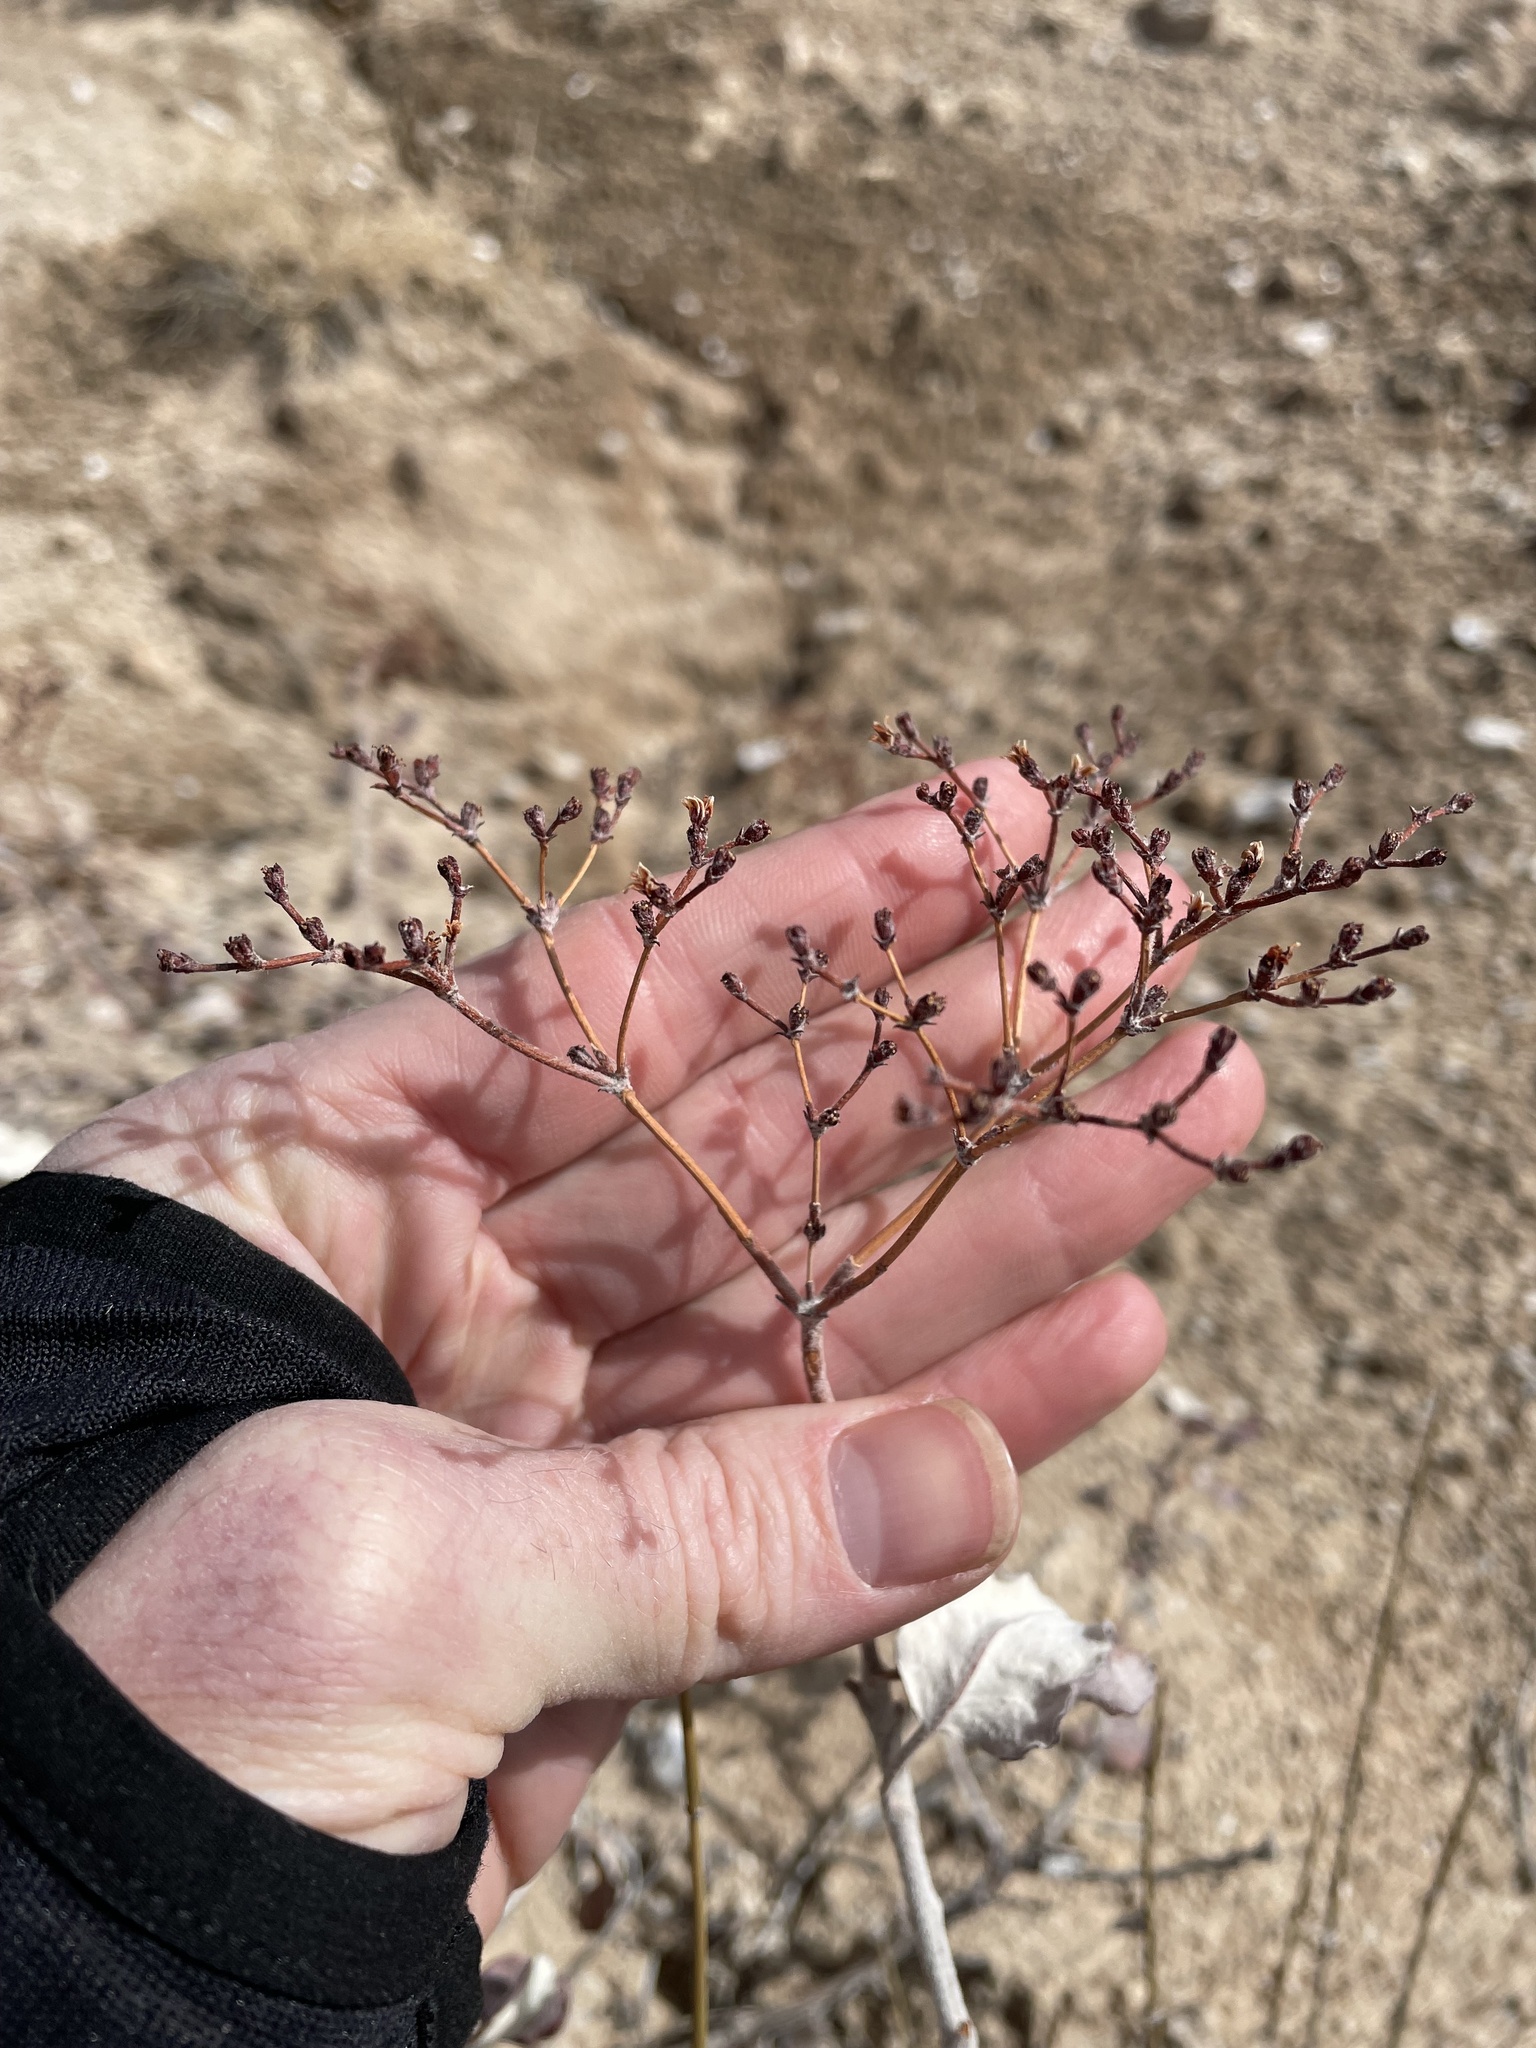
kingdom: Plantae
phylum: Tracheophyta
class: Magnoliopsida
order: Caryophyllales
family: Polygonaceae
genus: Eriogonum
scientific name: Eriogonum corymbosum
